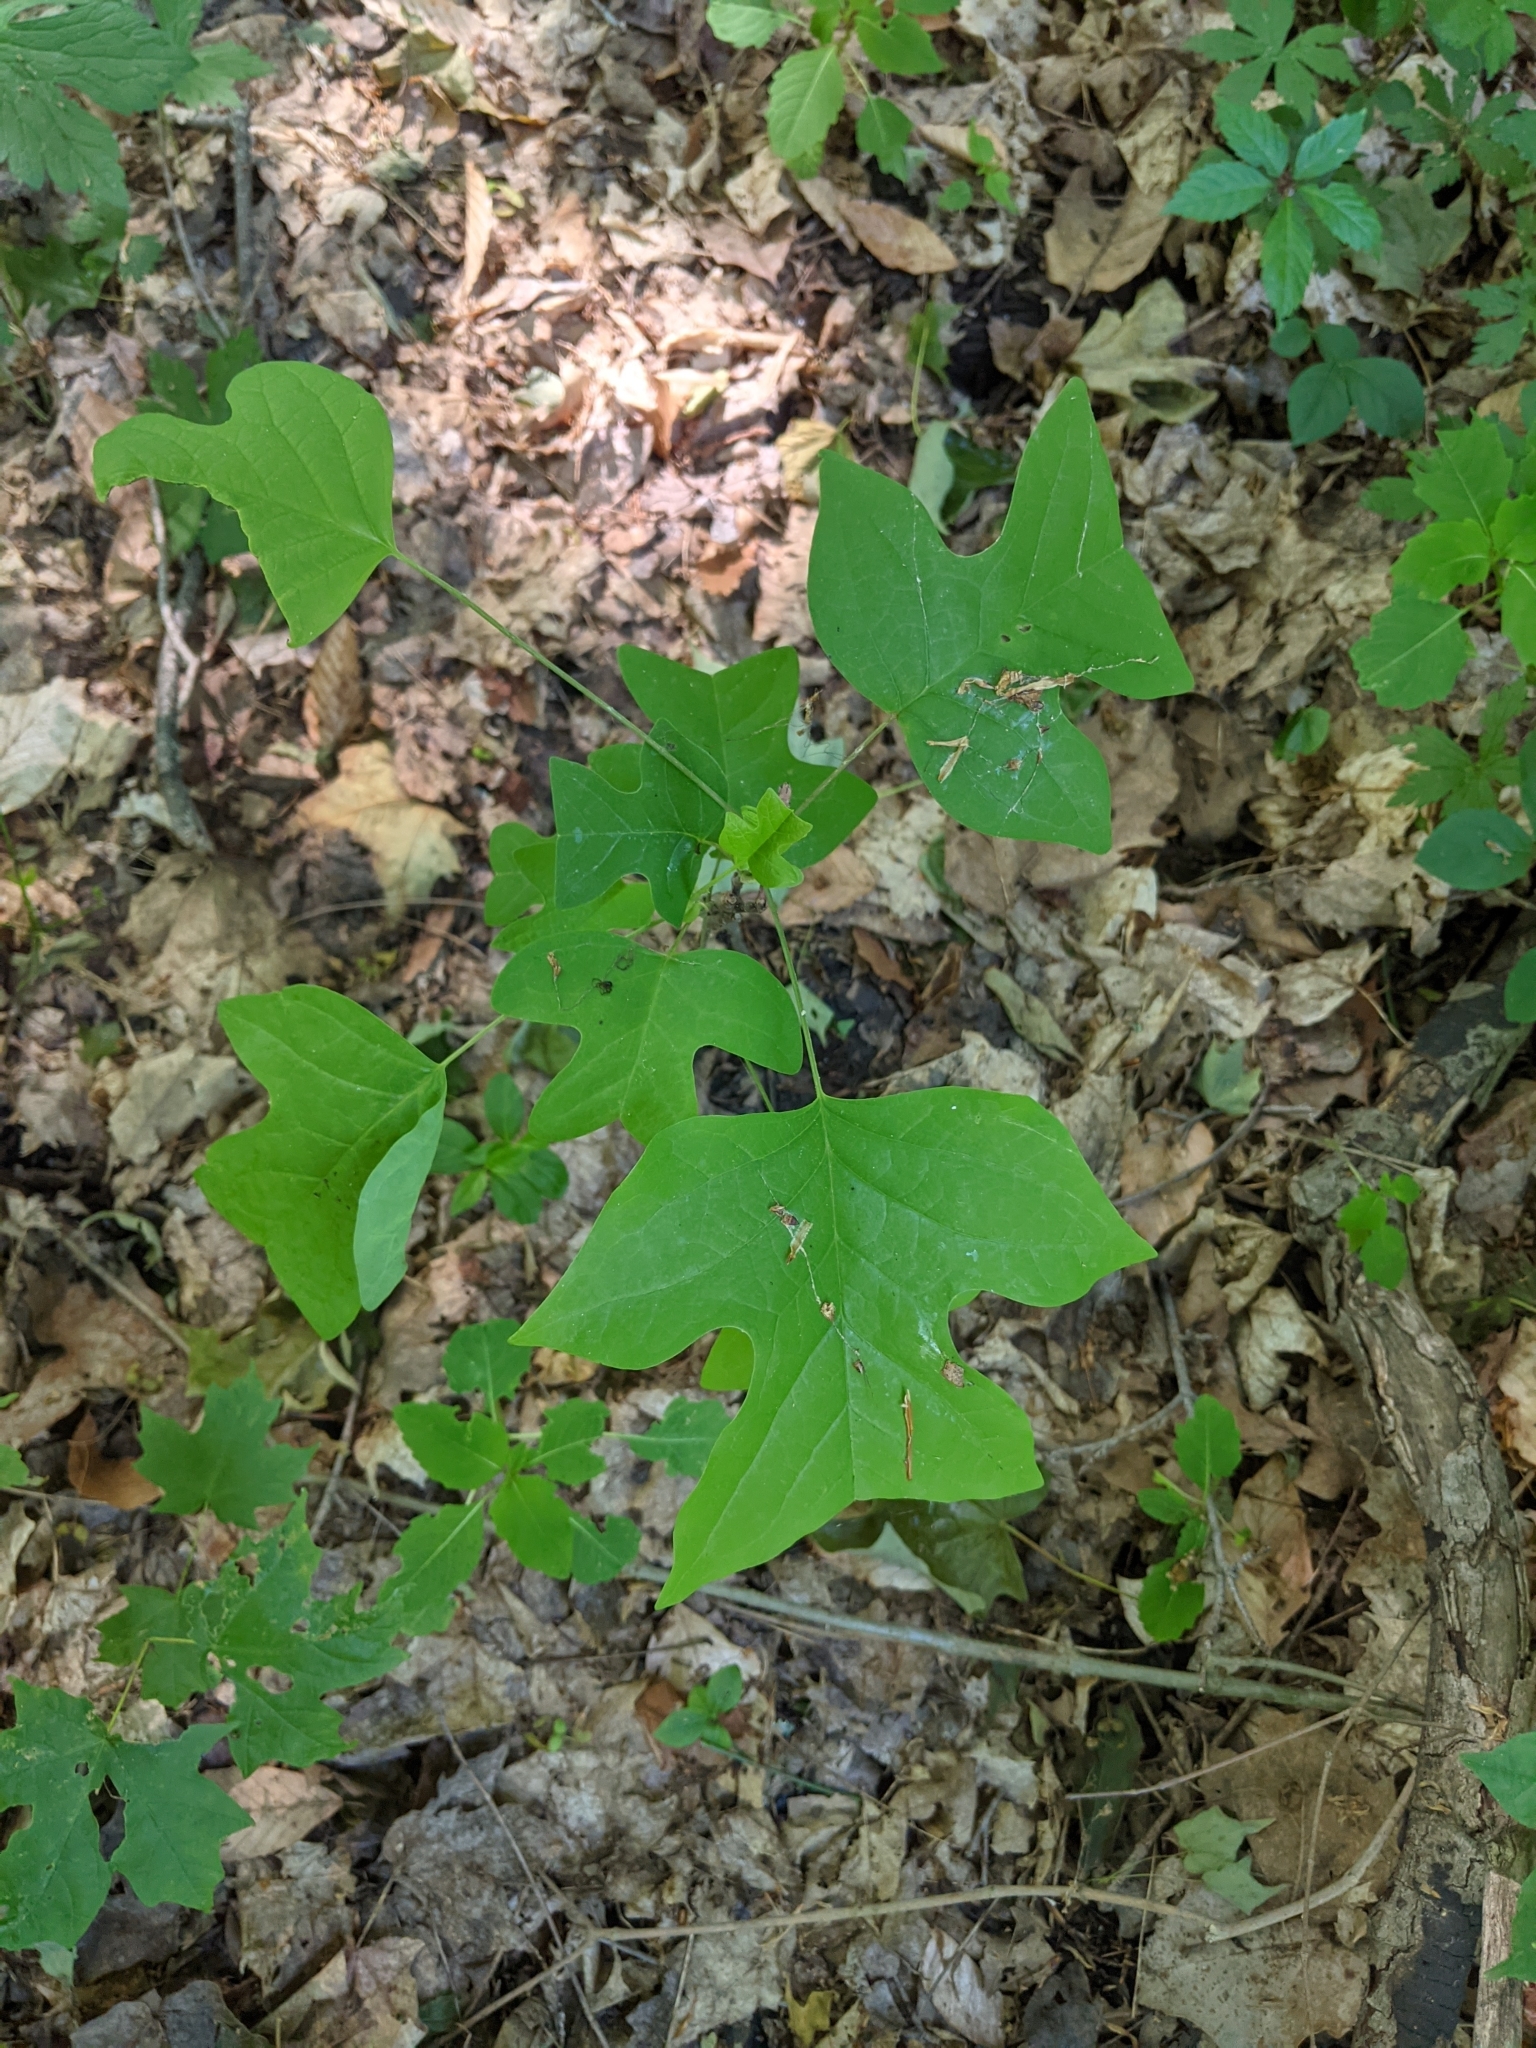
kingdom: Plantae
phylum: Tracheophyta
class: Magnoliopsida
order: Magnoliales
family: Magnoliaceae
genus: Liriodendron
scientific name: Liriodendron tulipifera
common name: Tulip tree
